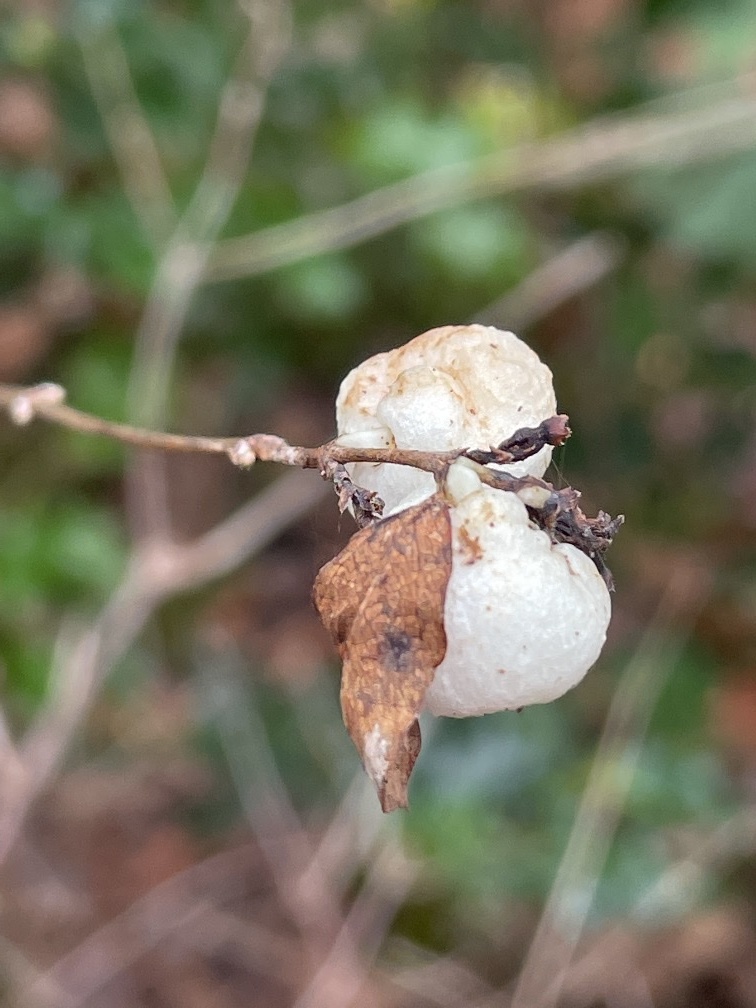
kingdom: Plantae
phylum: Tracheophyta
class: Magnoliopsida
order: Dipsacales
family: Caprifoliaceae
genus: Symphoricarpos
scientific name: Symphoricarpos albus
